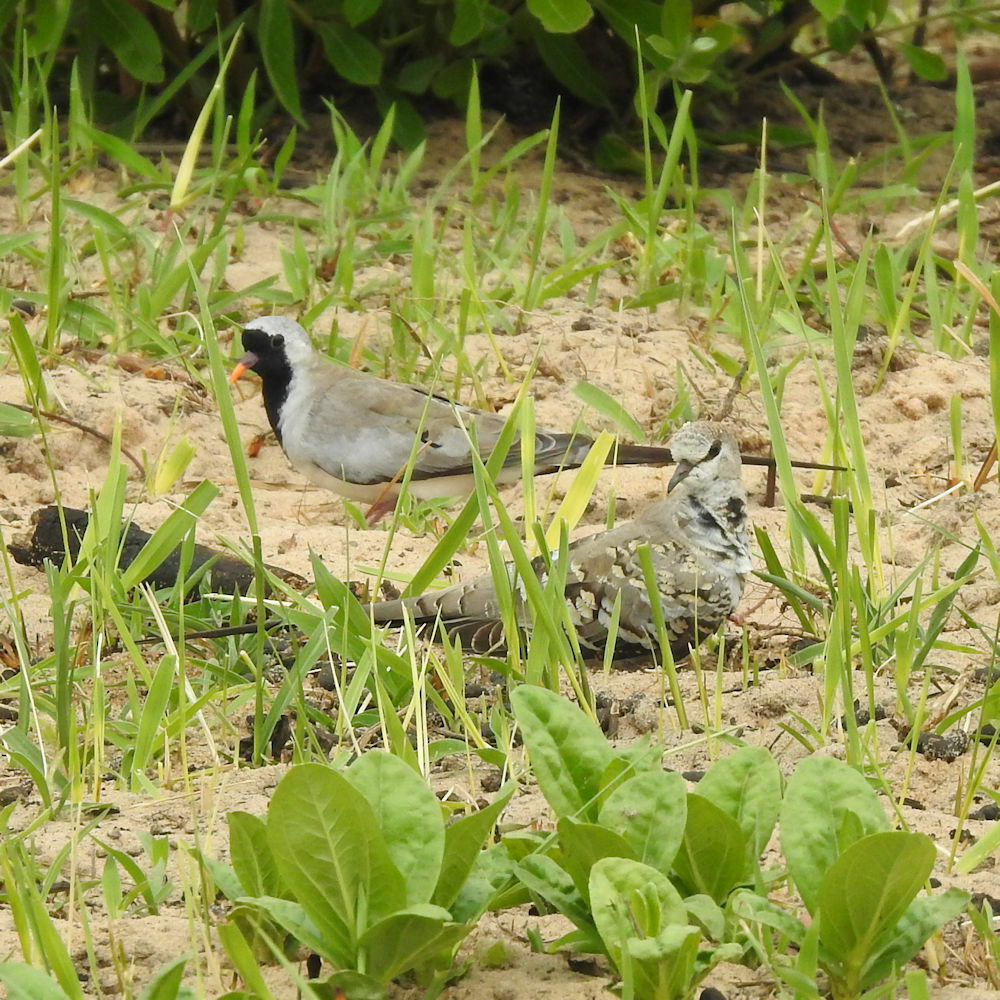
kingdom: Animalia
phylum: Chordata
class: Aves
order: Columbiformes
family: Columbidae
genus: Oena
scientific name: Oena capensis
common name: Namaqua dove
